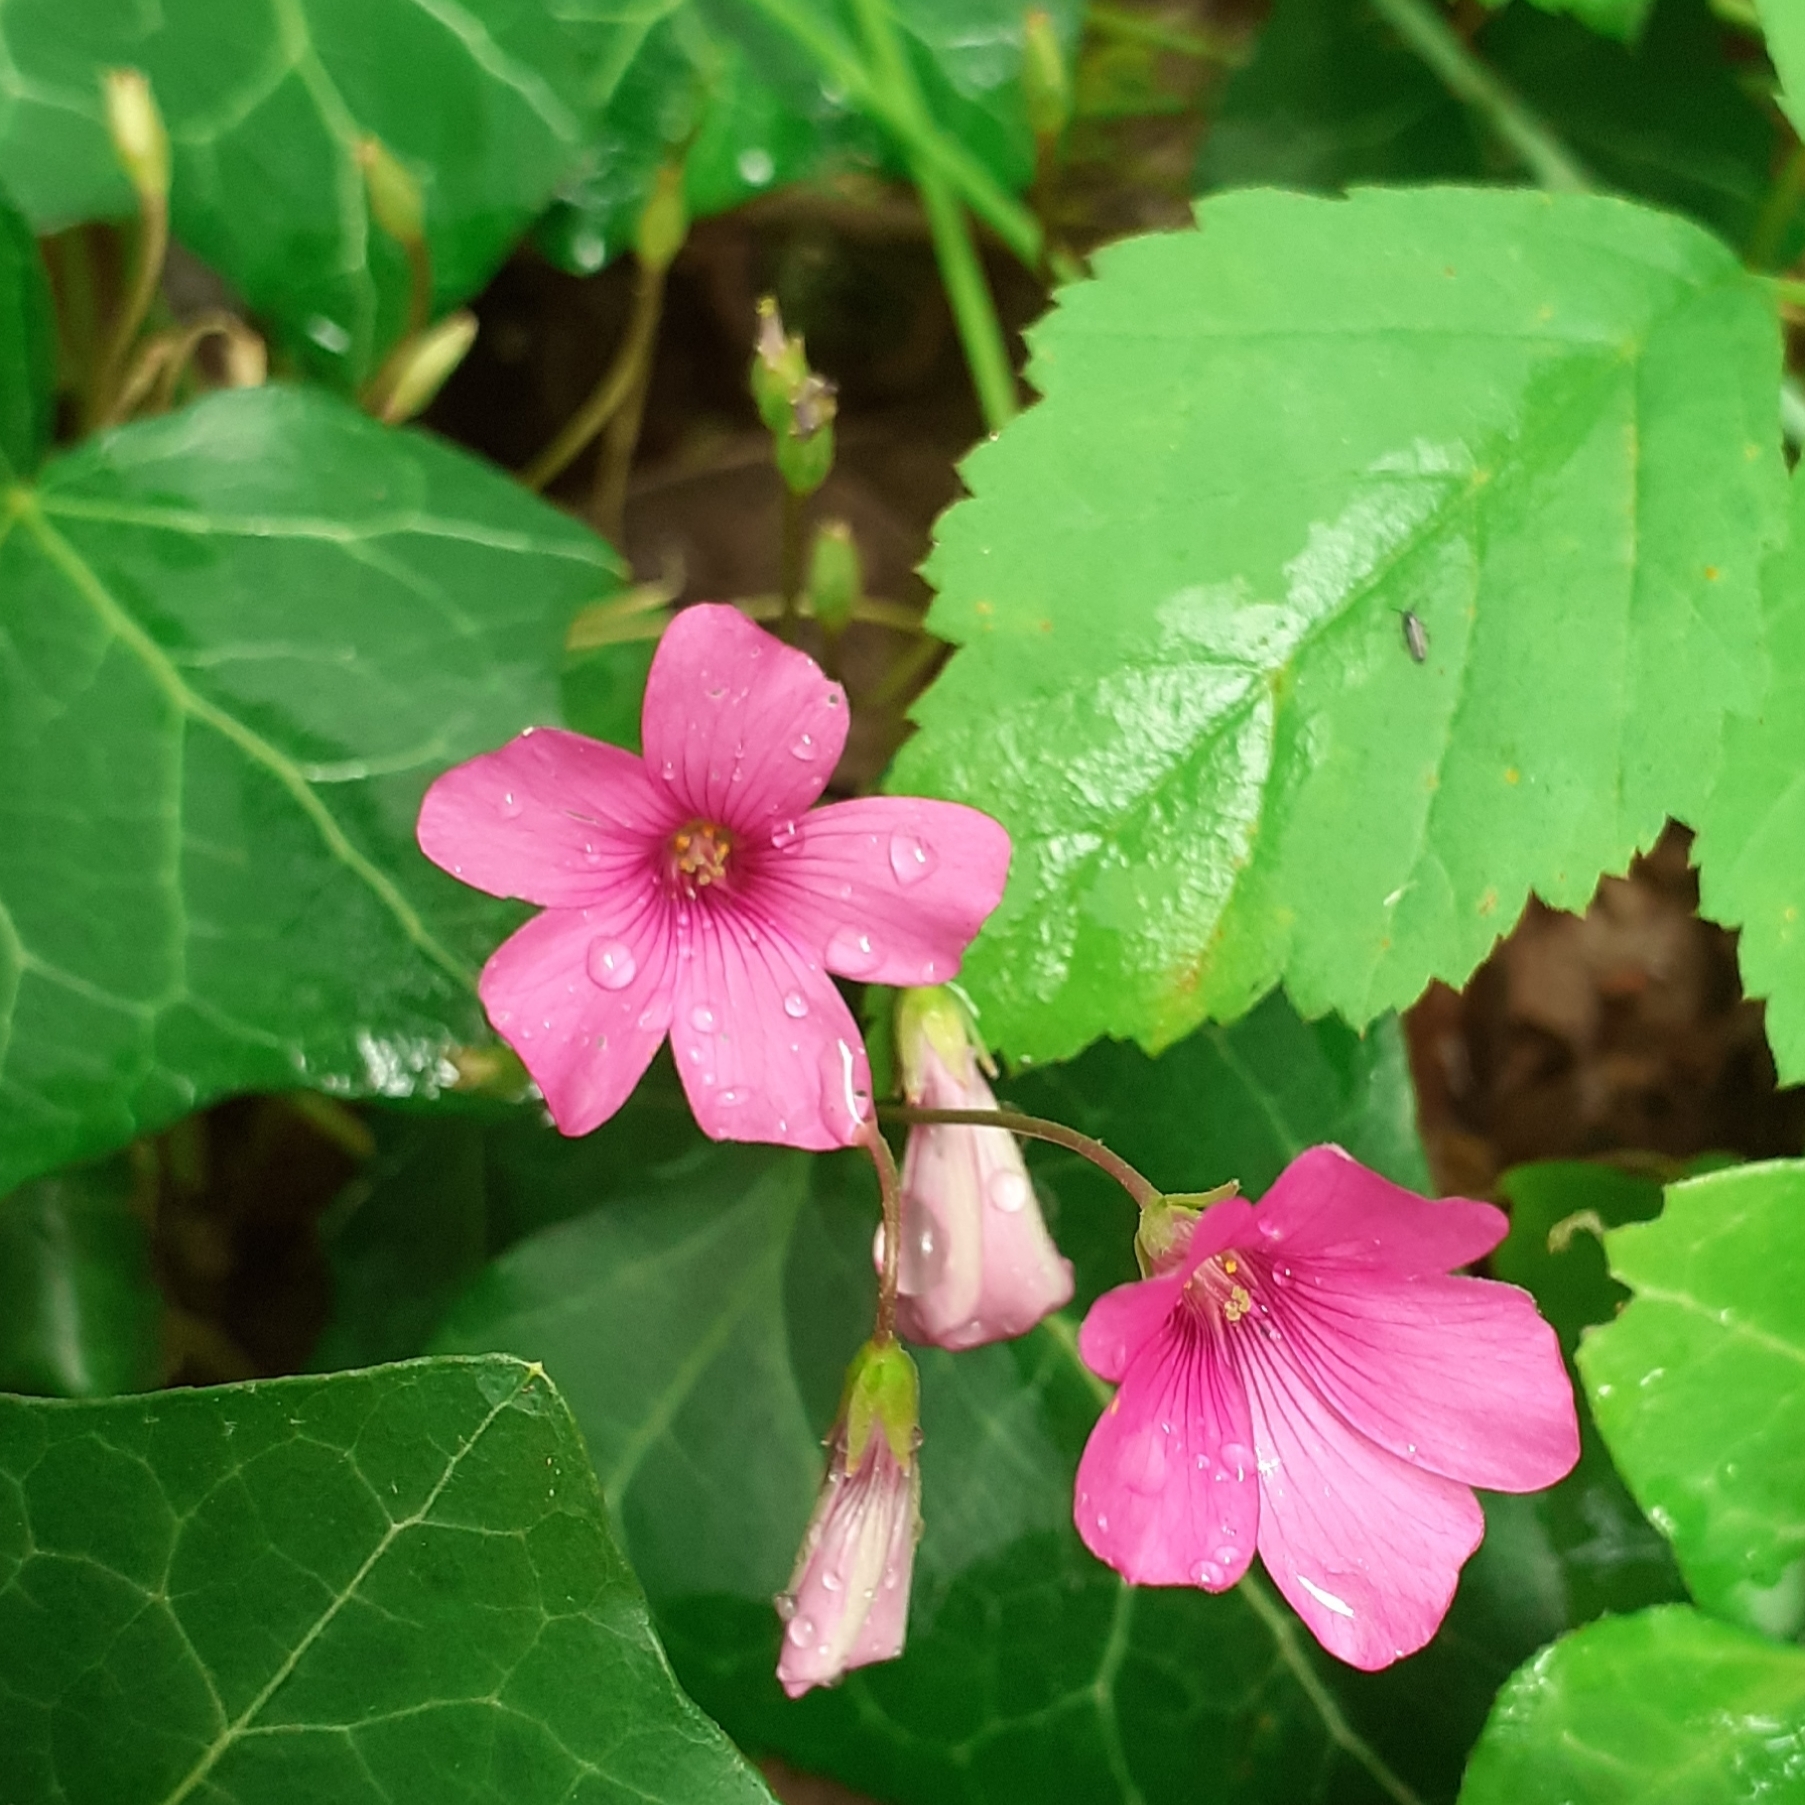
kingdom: Plantae
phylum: Tracheophyta
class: Magnoliopsida
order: Oxalidales
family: Oxalidaceae
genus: Oxalis
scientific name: Oxalis articulata
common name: Pink-sorrel
